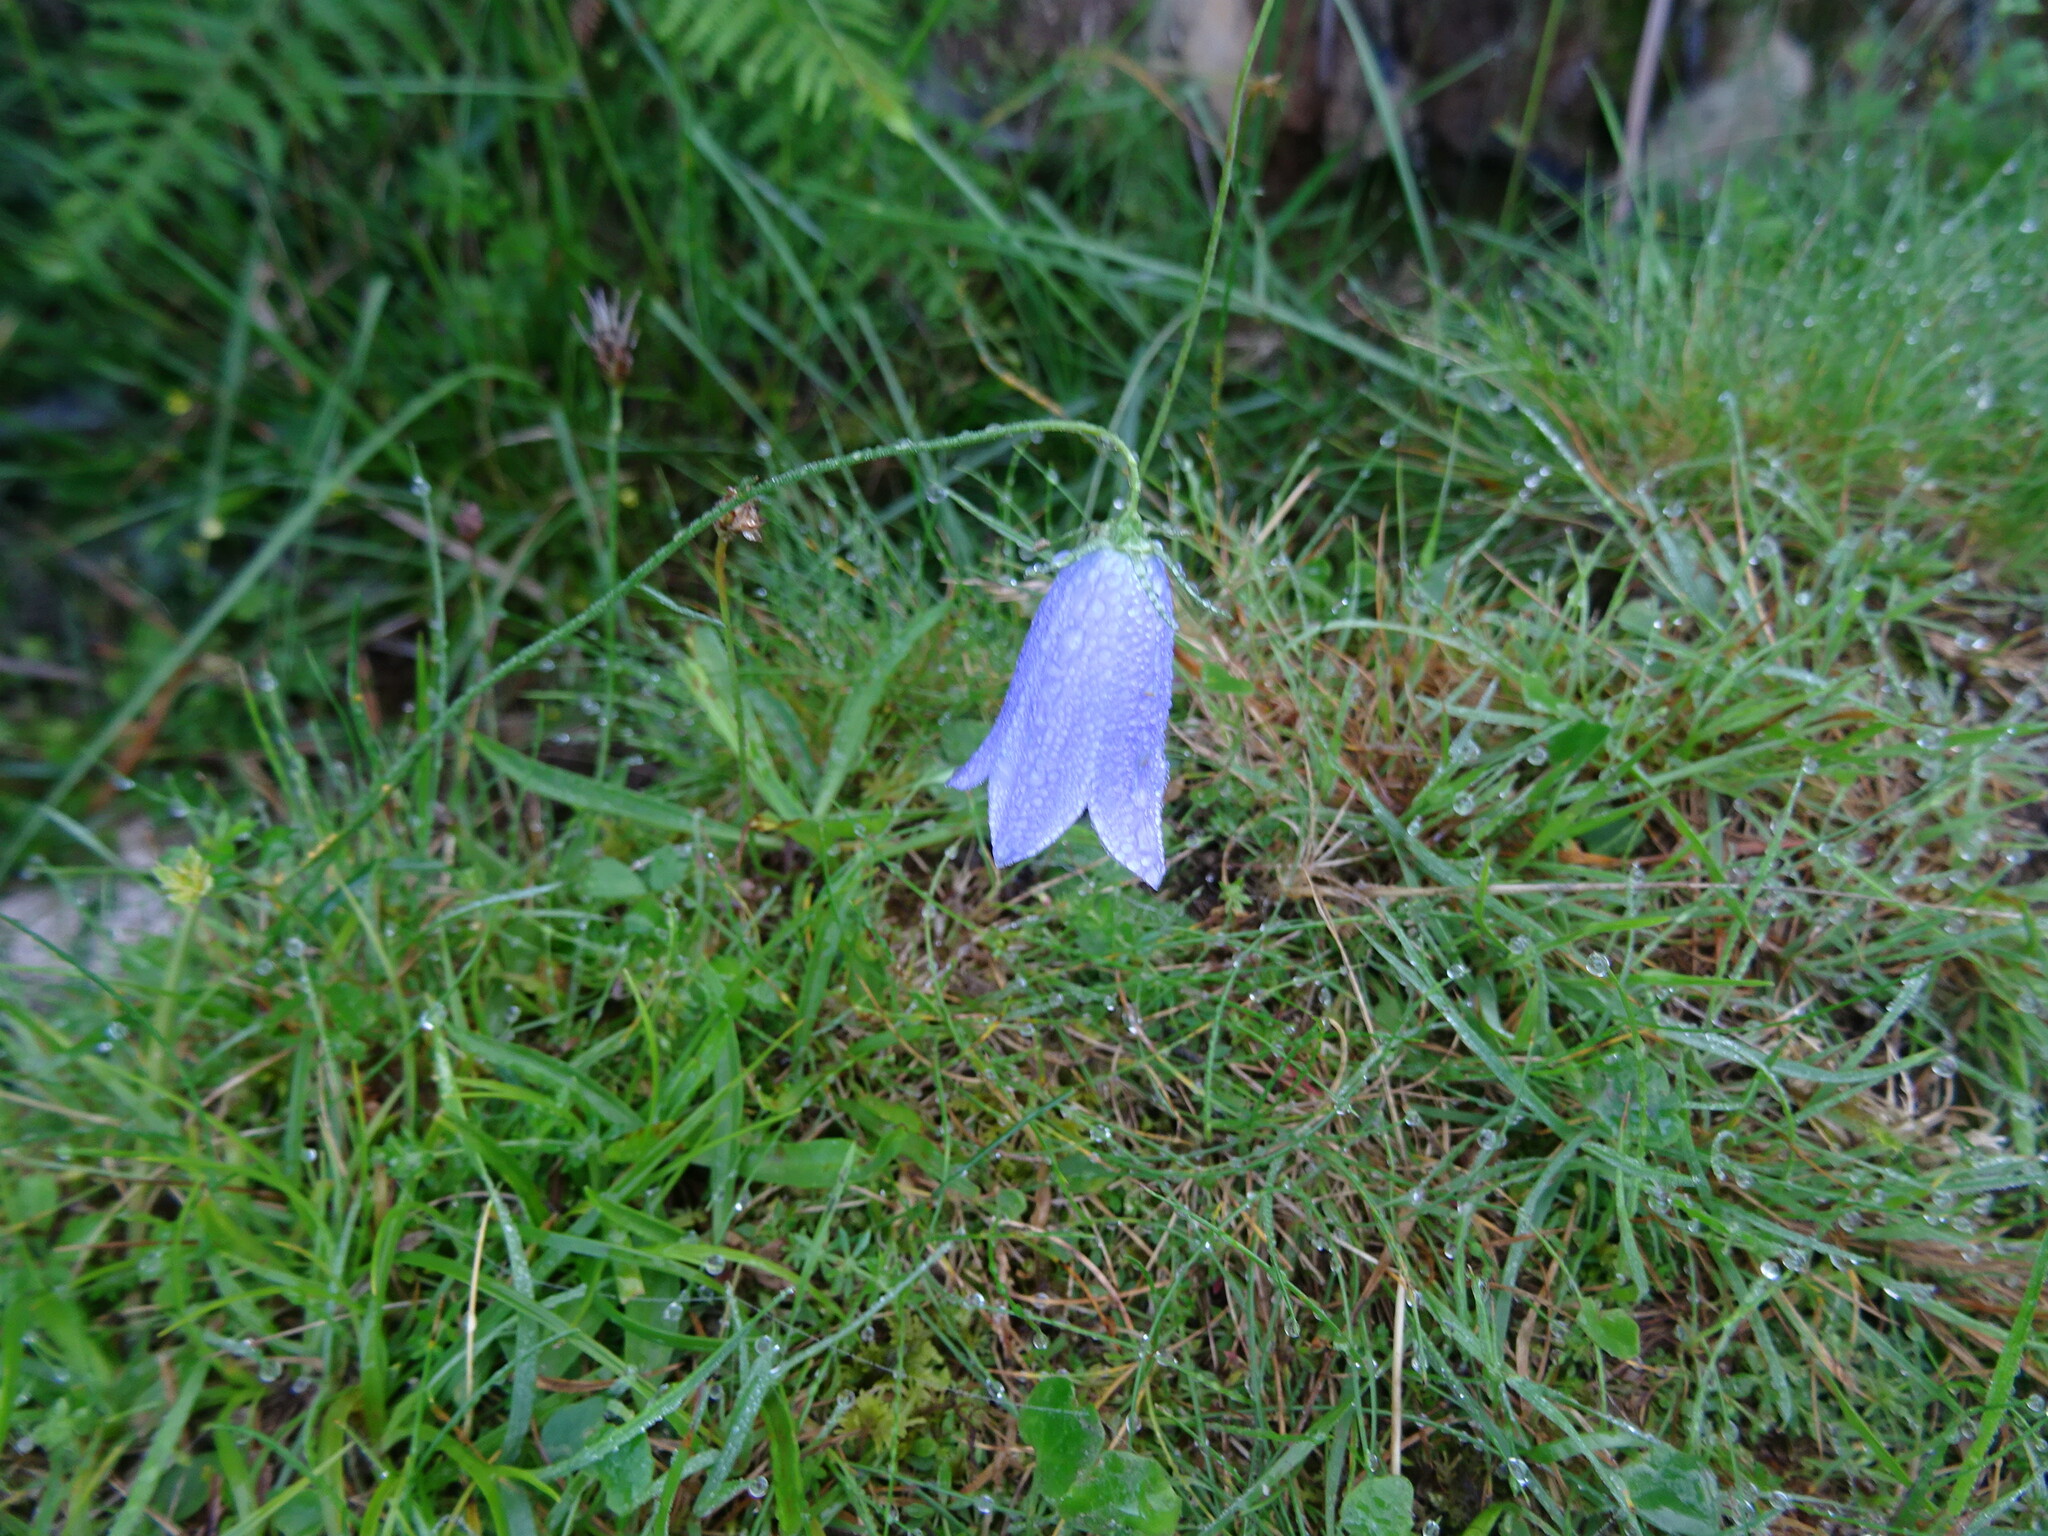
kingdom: Plantae
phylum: Tracheophyta
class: Magnoliopsida
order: Asterales
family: Campanulaceae
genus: Campanula
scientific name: Campanula rotundifolia
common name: Harebell
